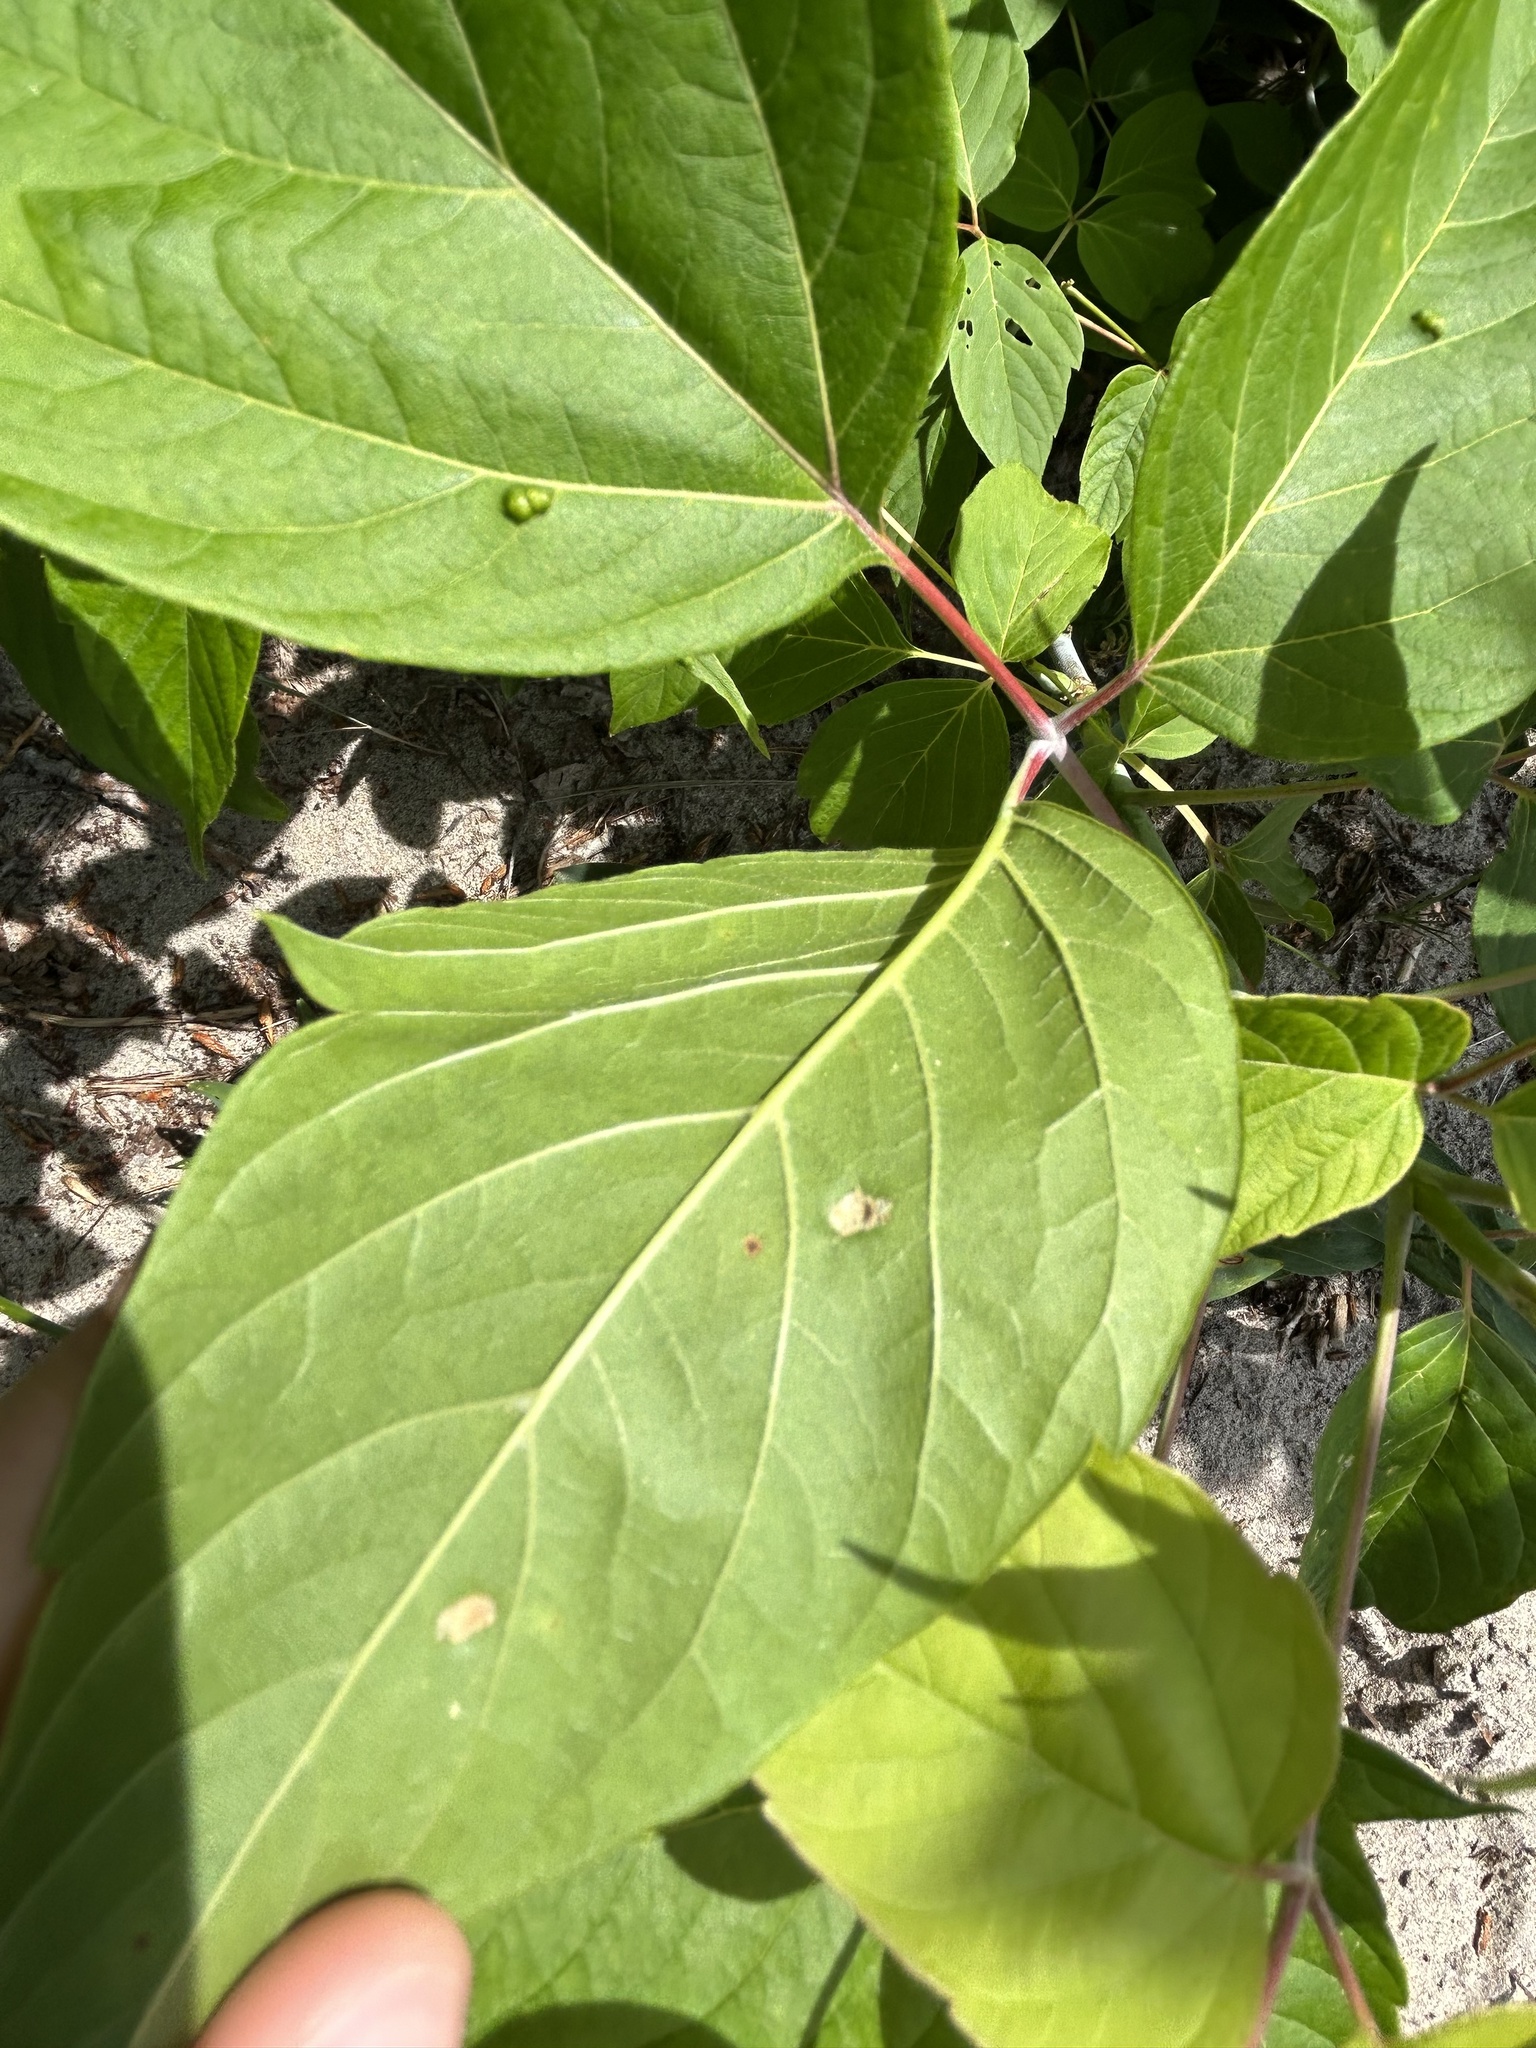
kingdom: Animalia
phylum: Arthropoda
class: Arachnida
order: Trombidiformes
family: Eriophyidae
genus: Aceria
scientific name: Aceria
